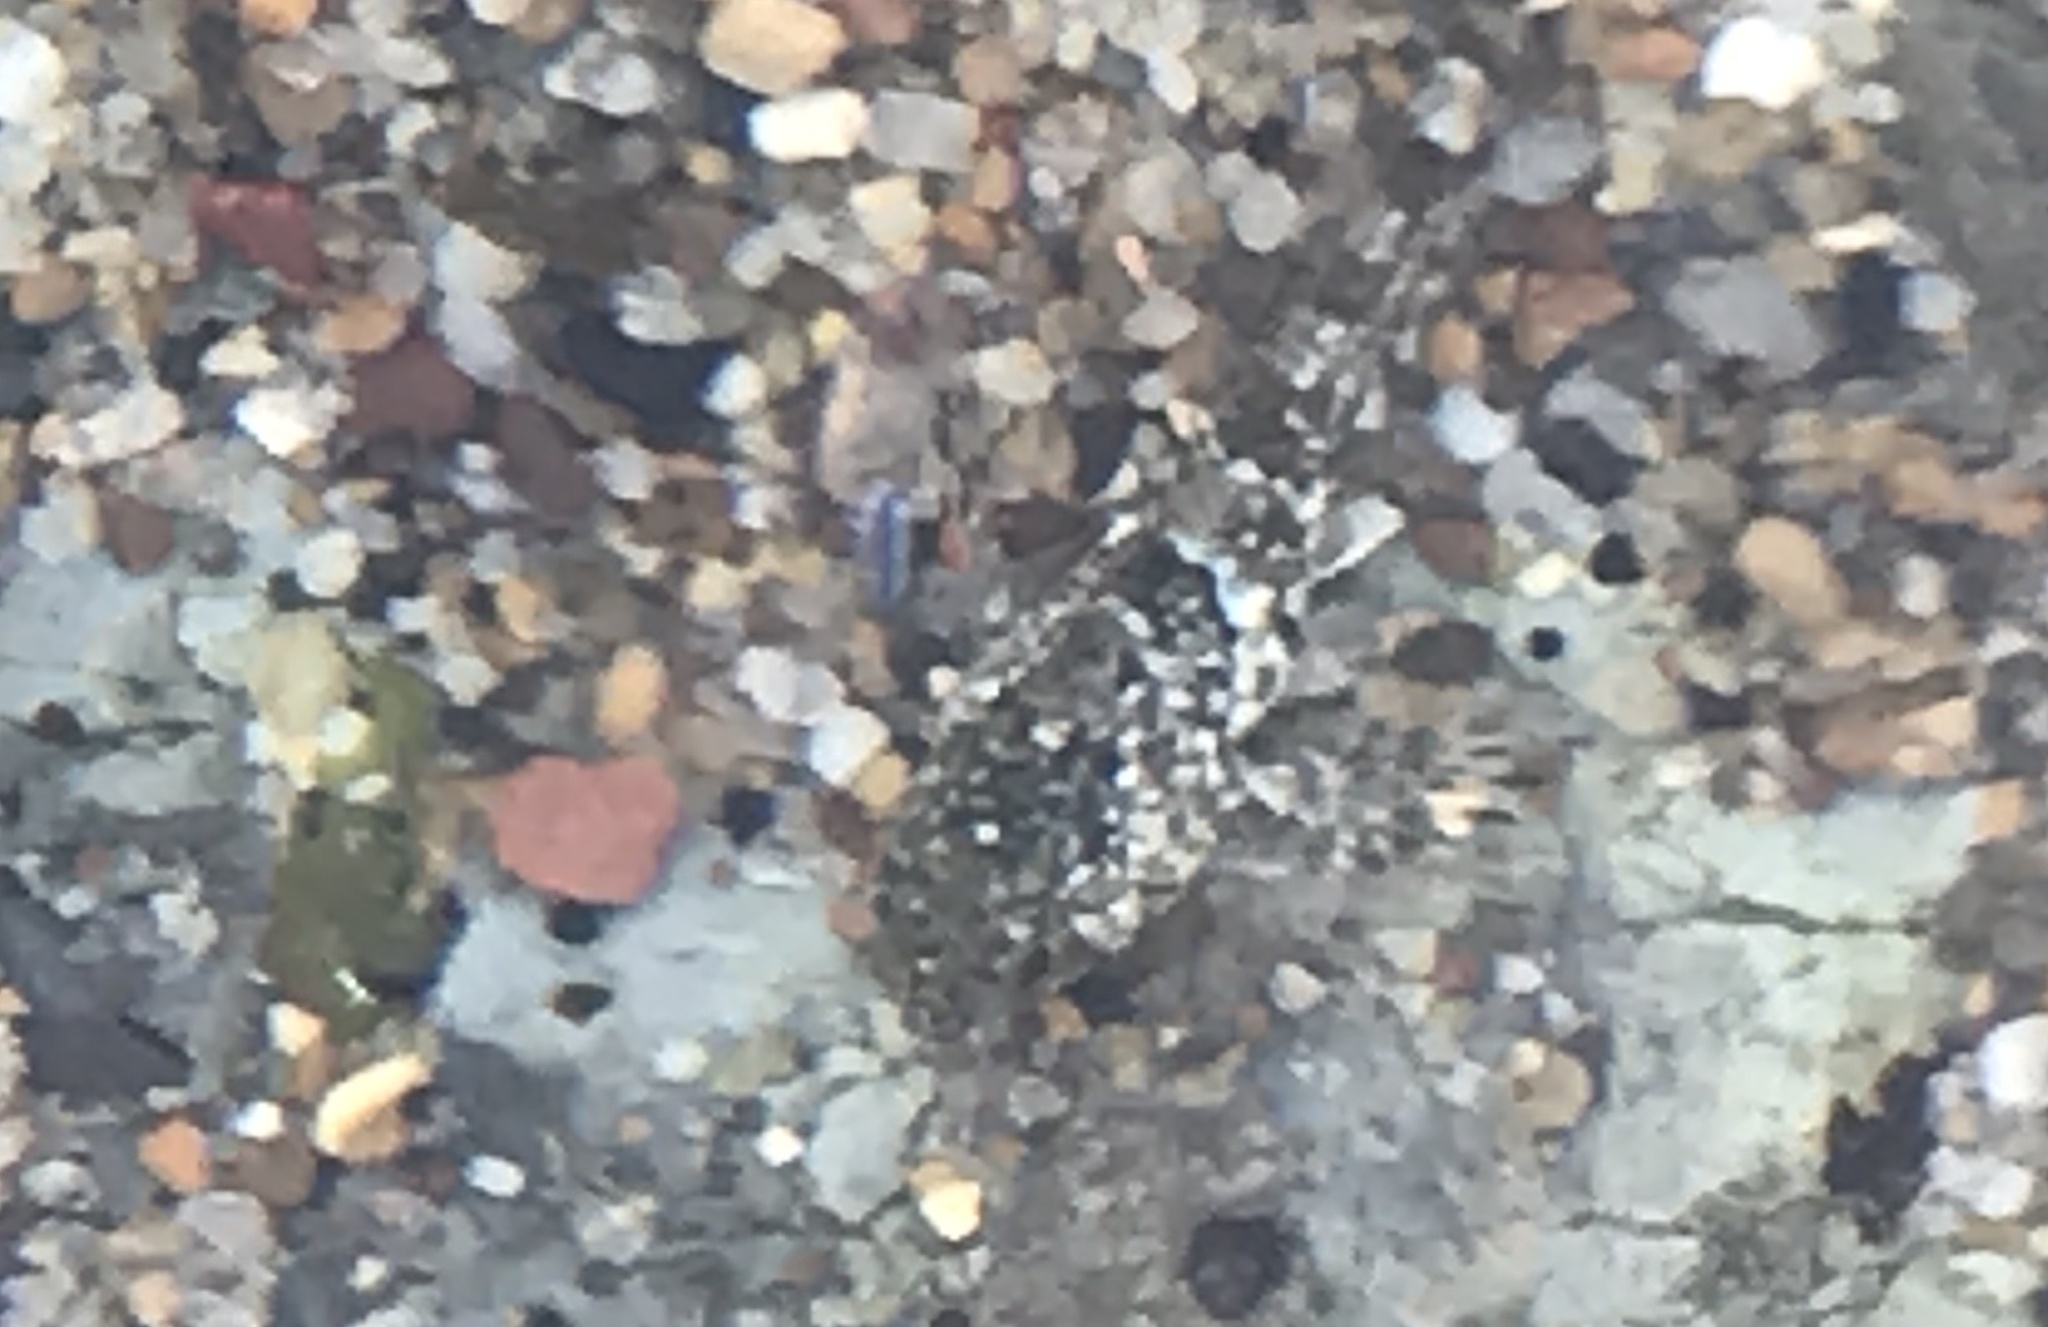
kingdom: Animalia
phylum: Chordata
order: Scorpaeniformes
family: Cottidae
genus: Clinocottus
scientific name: Clinocottus analis
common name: Woolly sculpin
